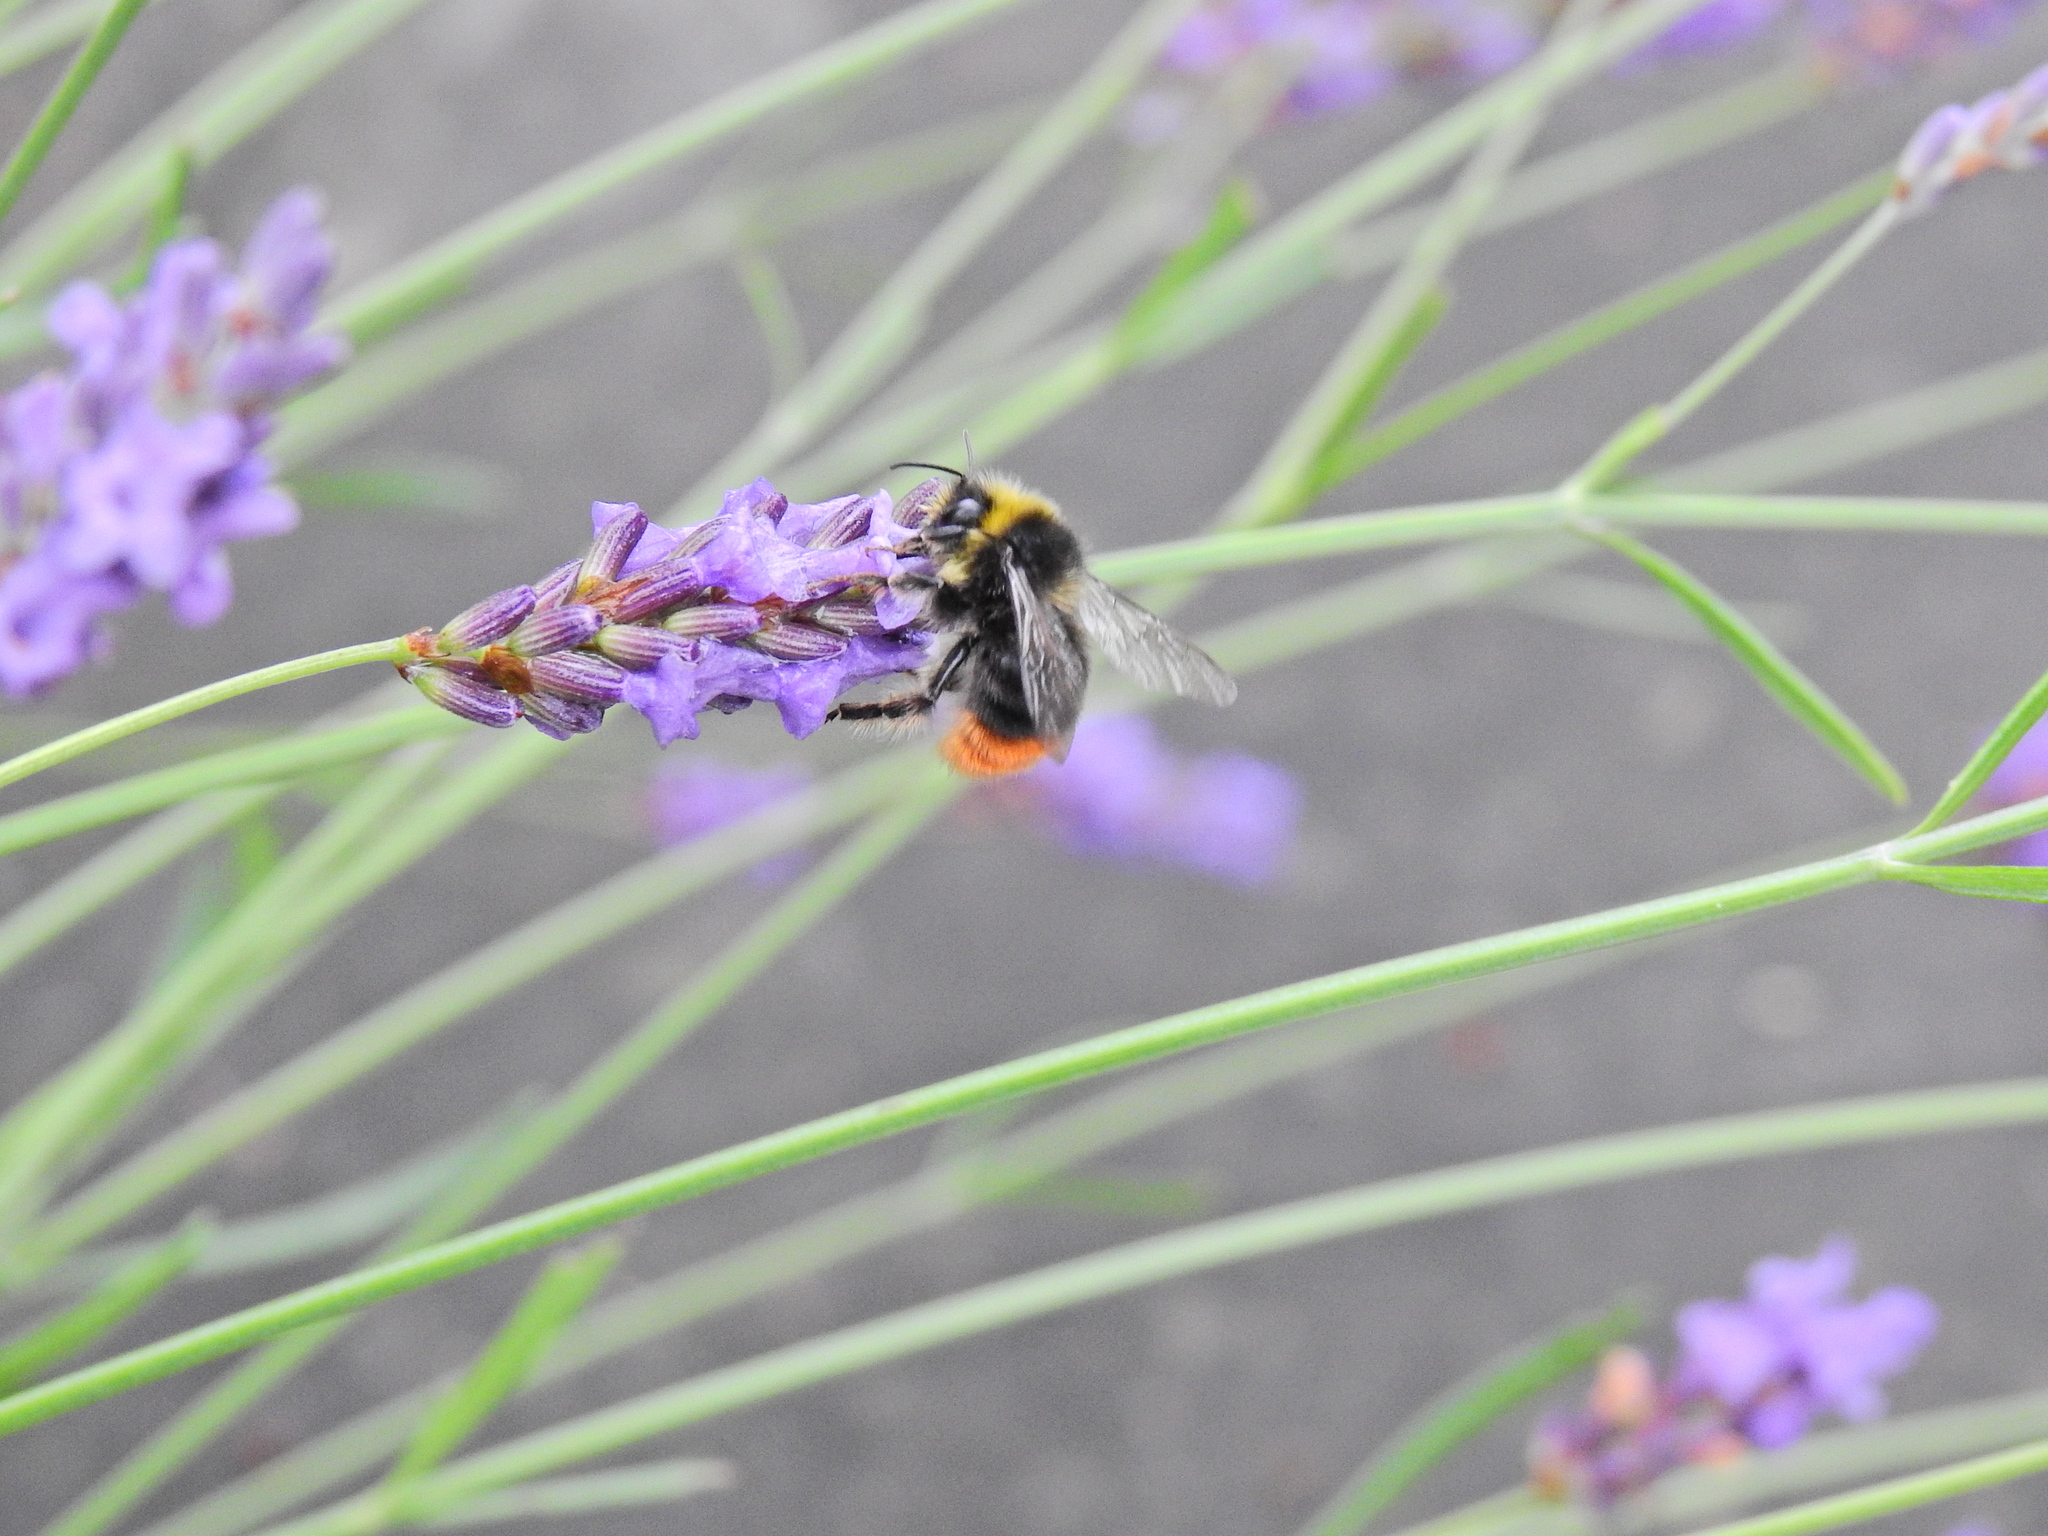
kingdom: Animalia
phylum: Arthropoda
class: Insecta
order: Hymenoptera
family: Apidae
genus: Bombus
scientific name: Bombus lapidarius
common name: Large red-tailed humble-bee
